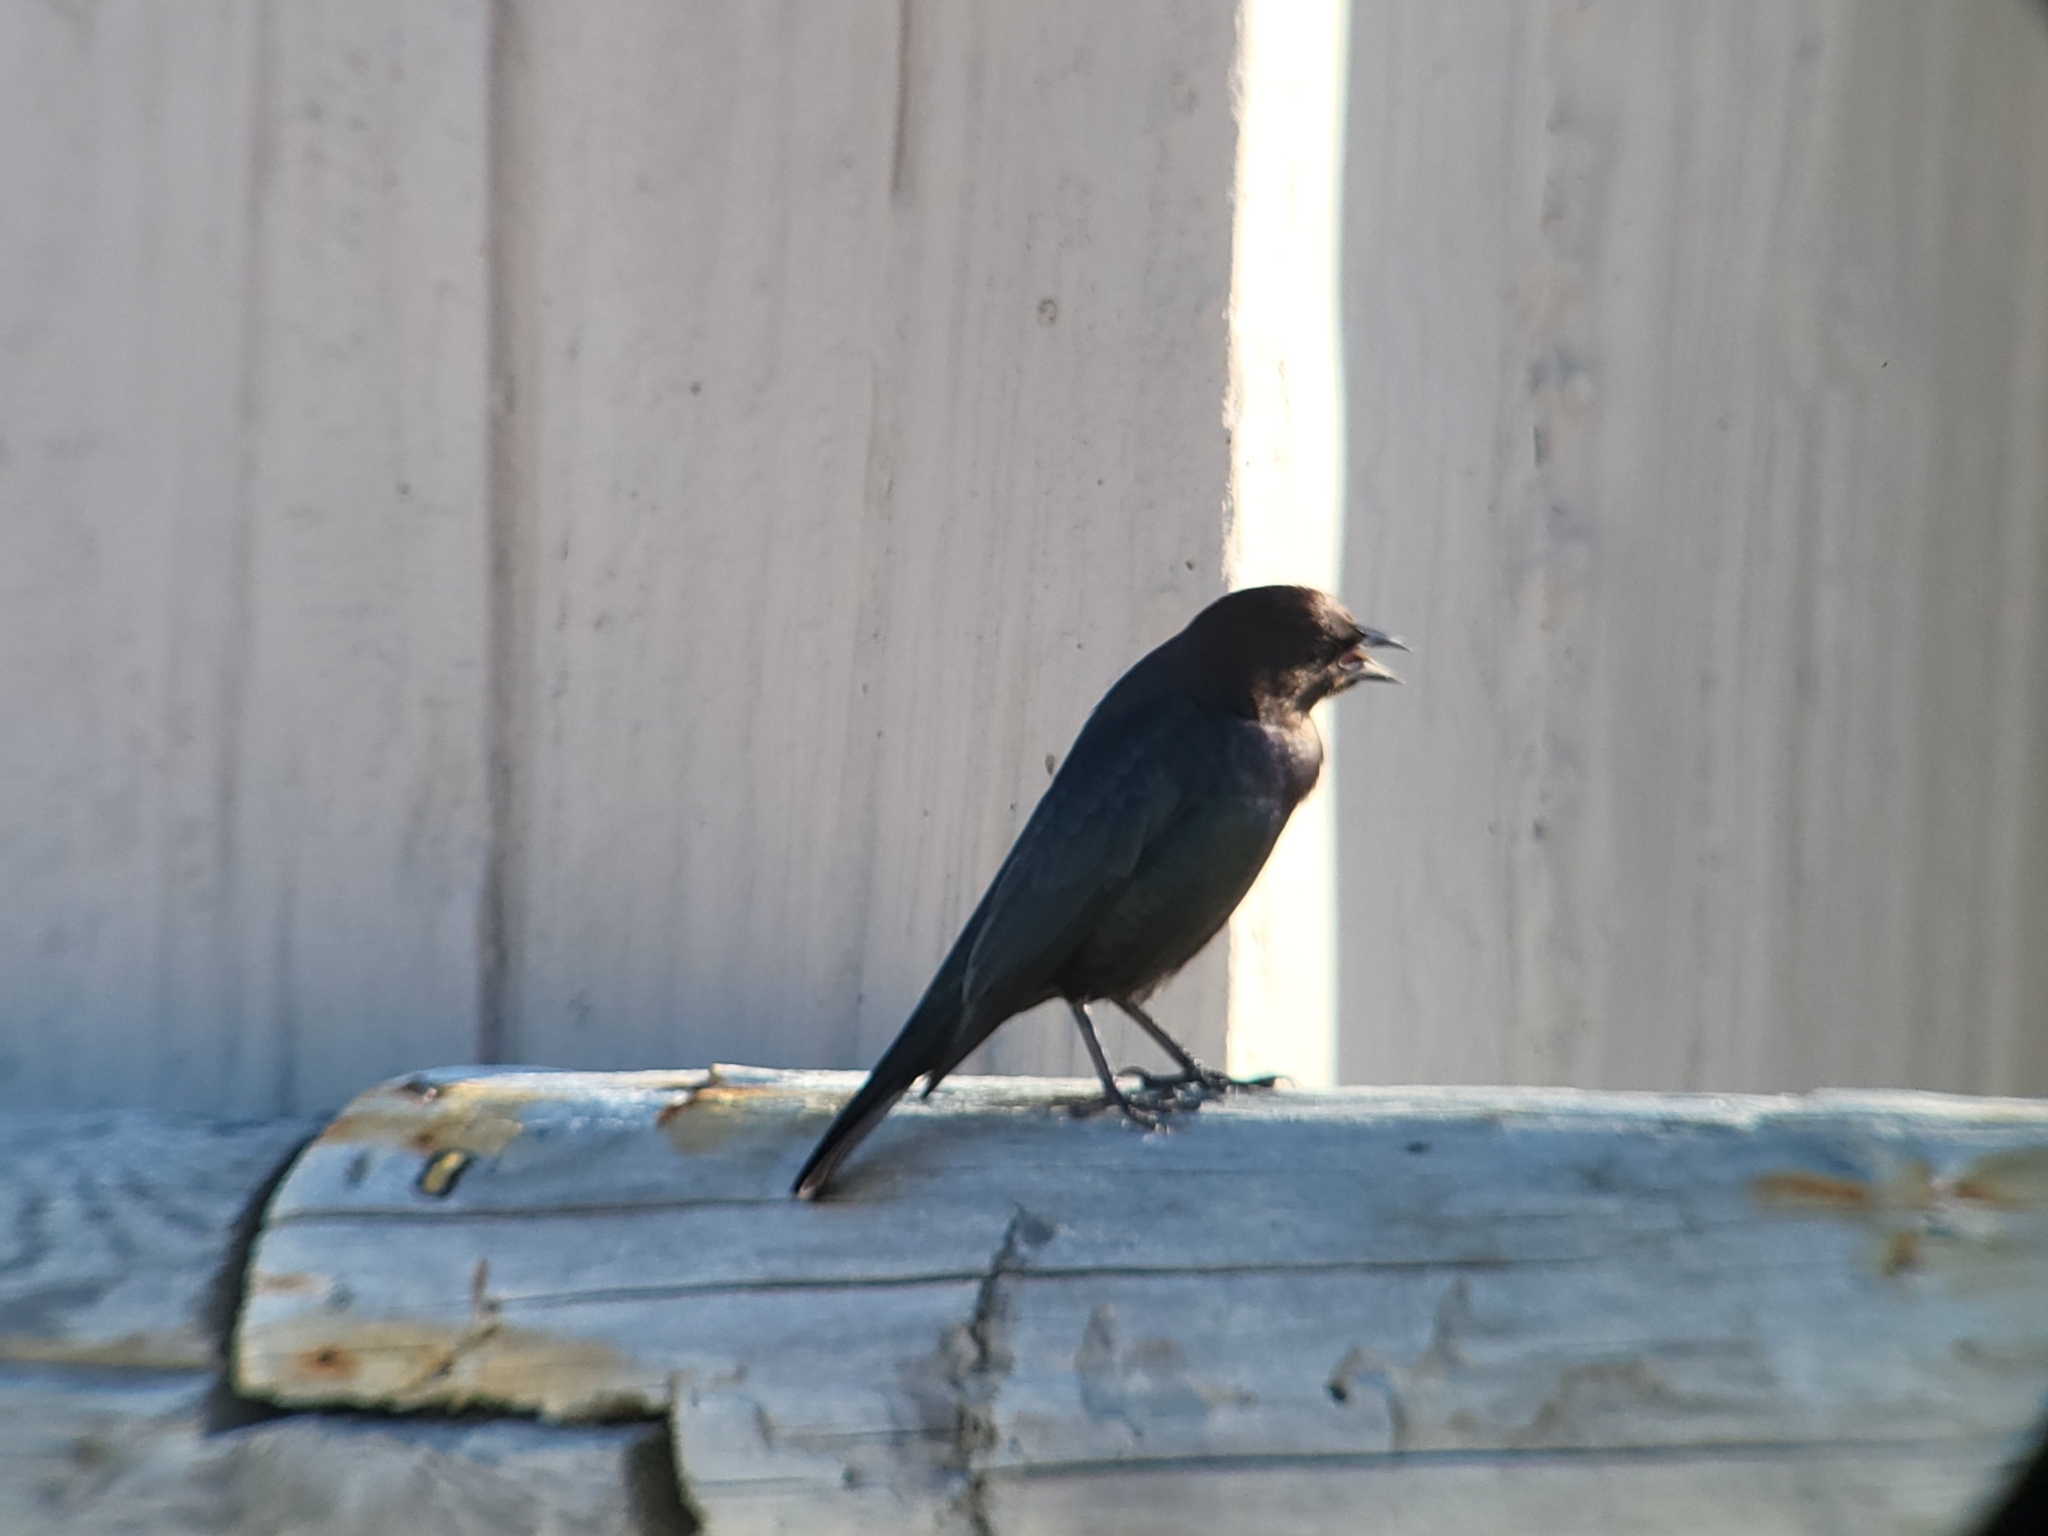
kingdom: Animalia
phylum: Chordata
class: Aves
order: Passeriformes
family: Icteridae
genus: Molothrus
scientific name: Molothrus ater
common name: Brown-headed cowbird
